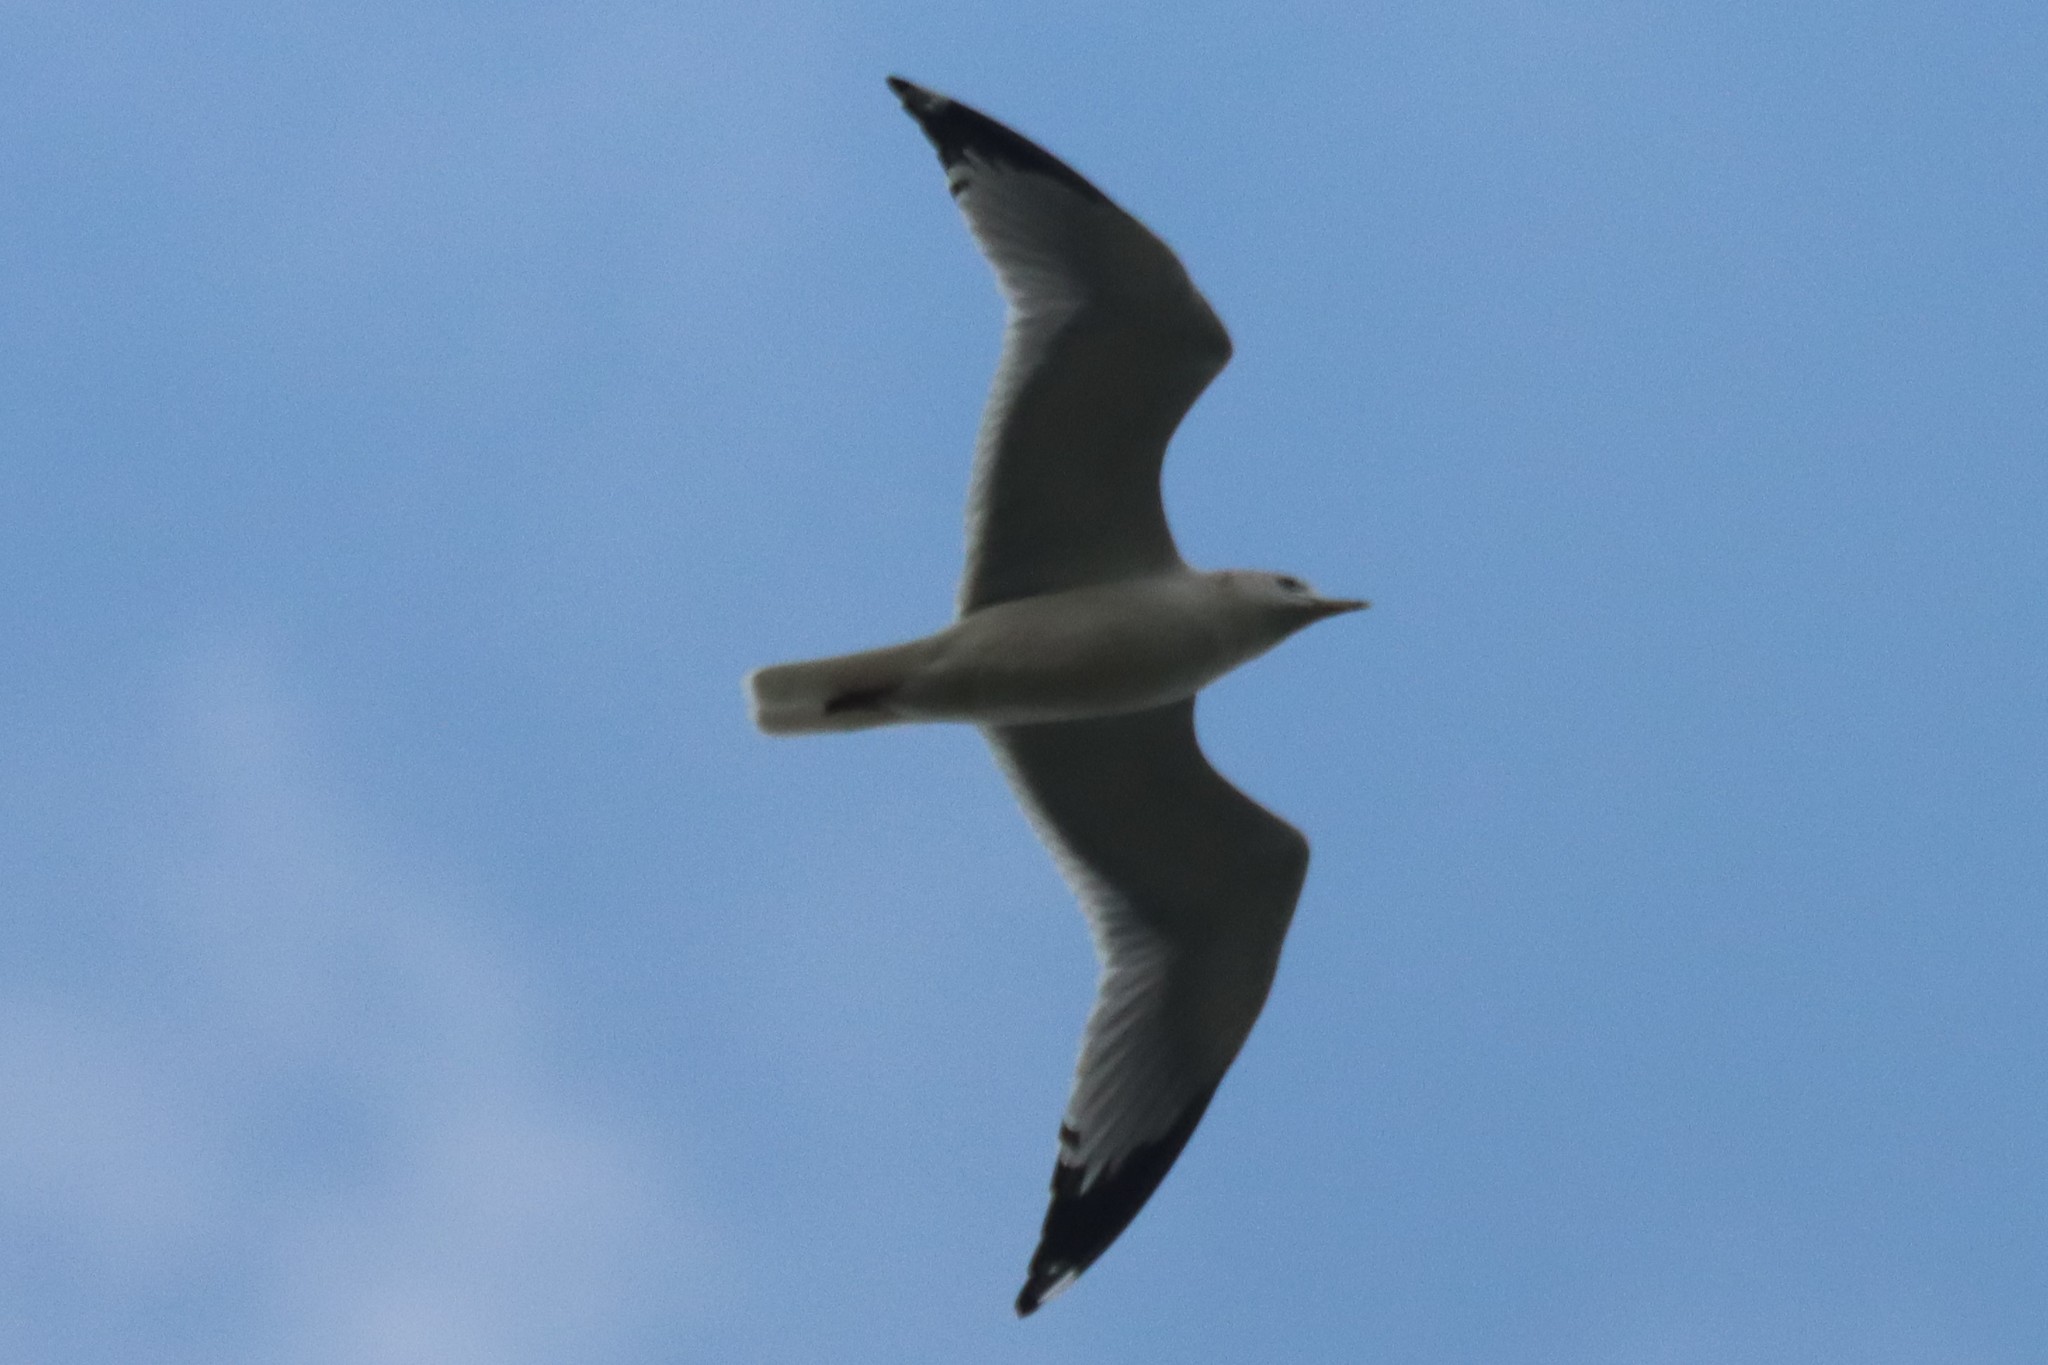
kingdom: Animalia
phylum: Chordata
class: Aves
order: Charadriiformes
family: Laridae
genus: Larus
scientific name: Larus delawarensis
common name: Ring-billed gull
